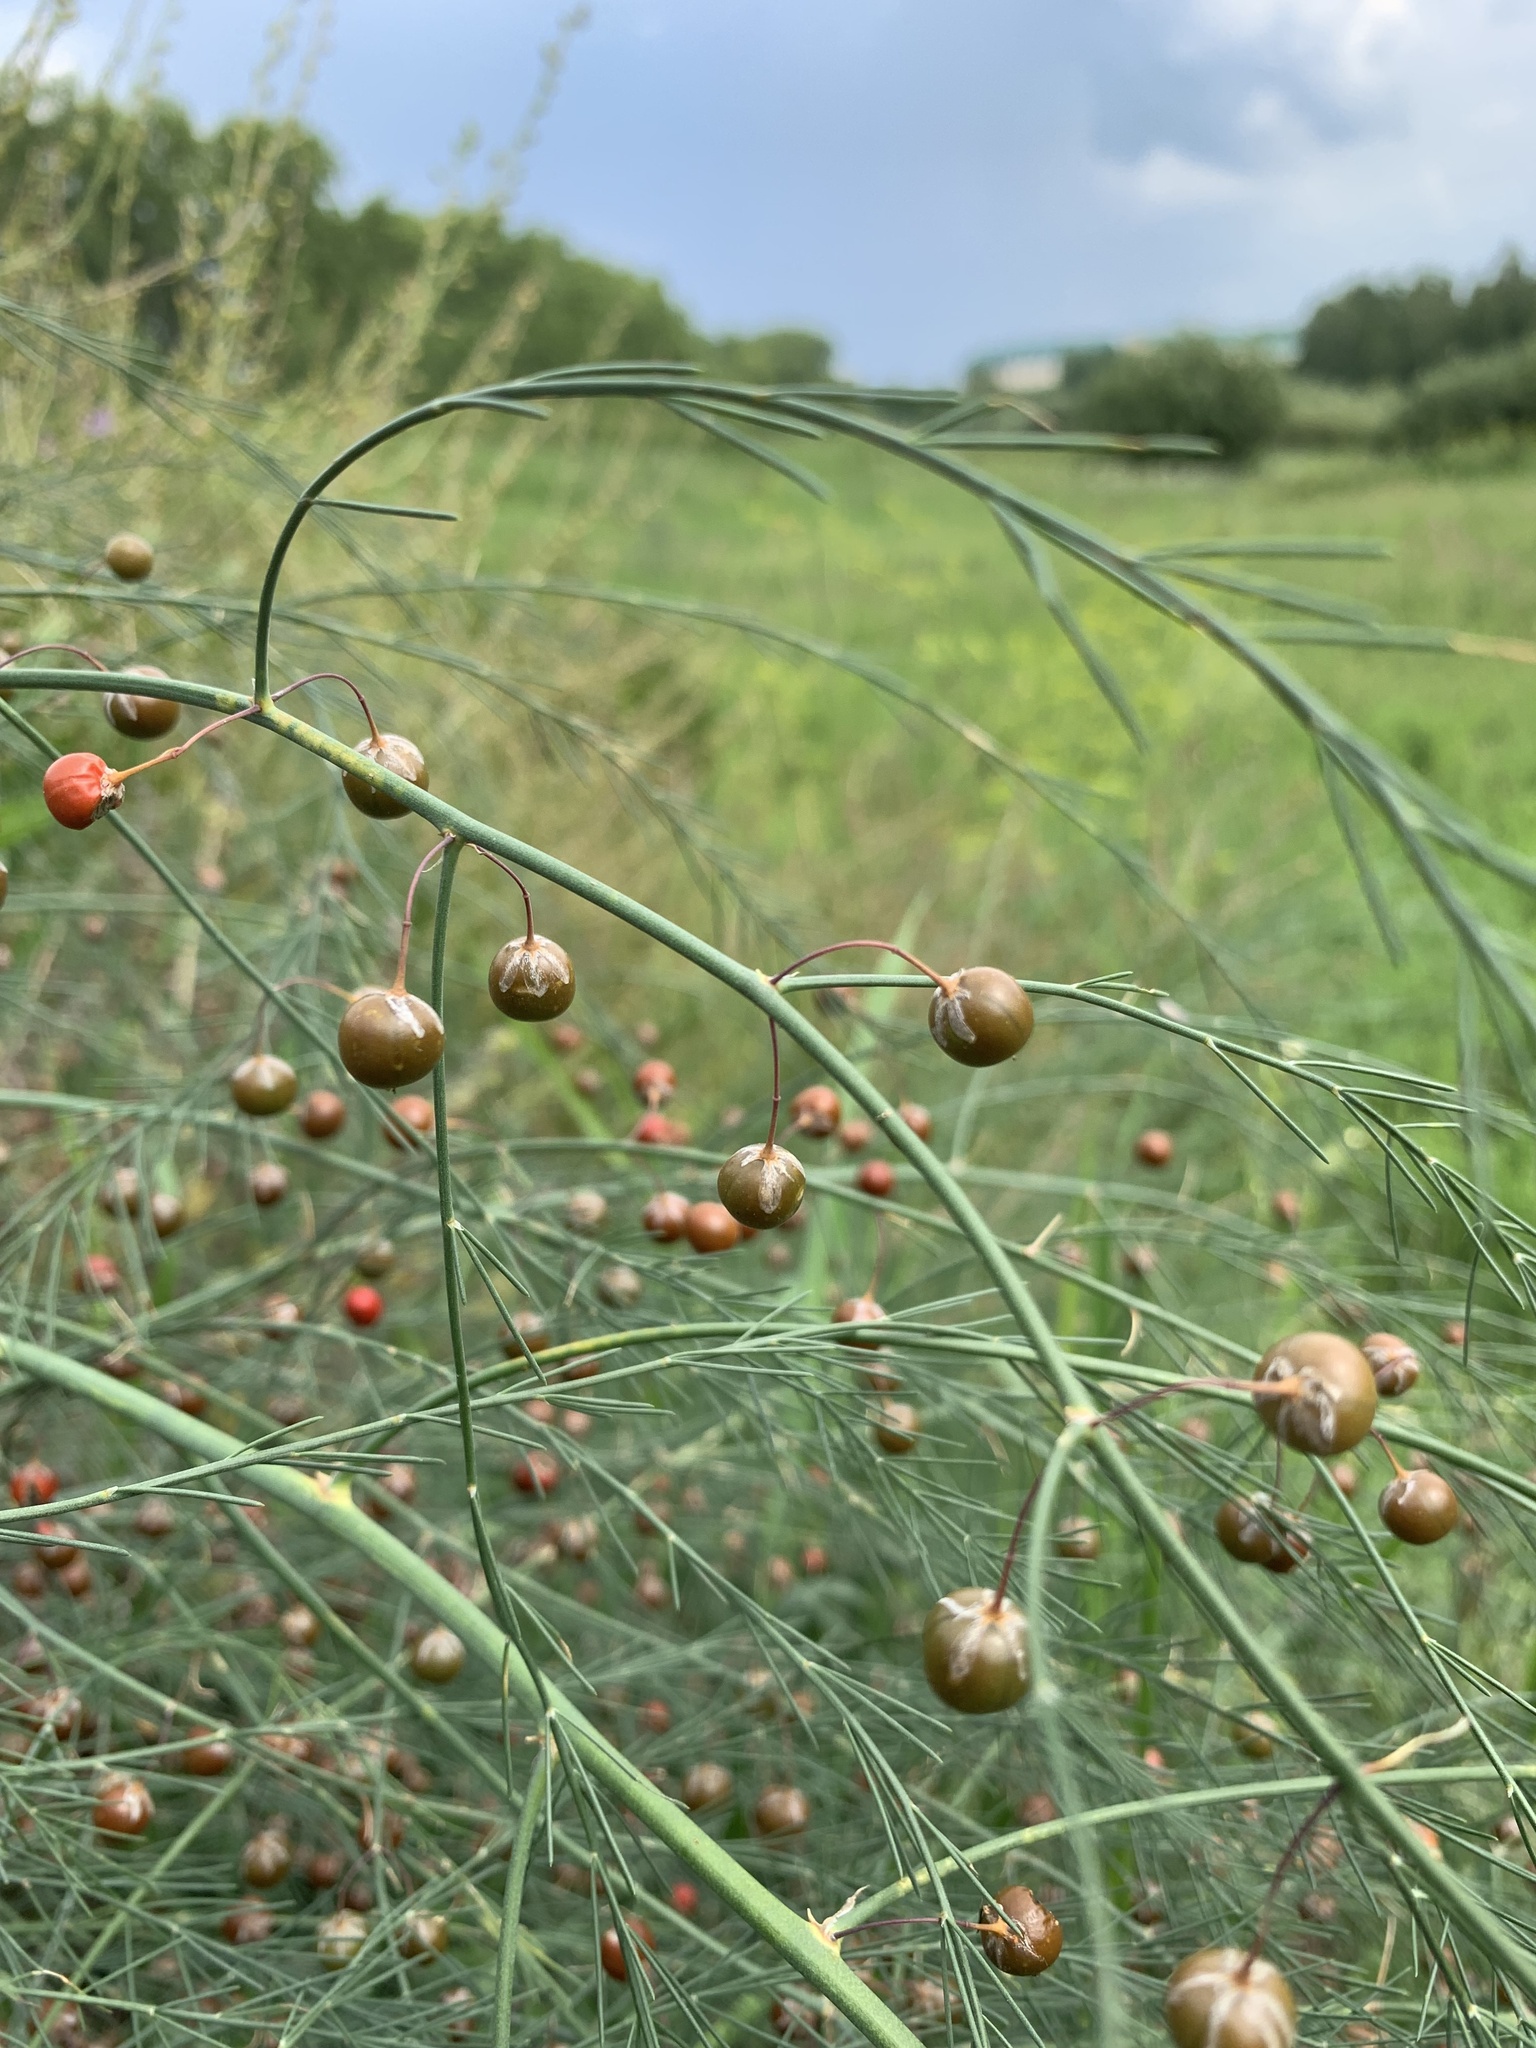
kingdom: Plantae
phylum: Tracheophyta
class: Liliopsida
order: Asparagales
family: Asparagaceae
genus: Asparagus
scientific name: Asparagus officinalis
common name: Garden asparagus
